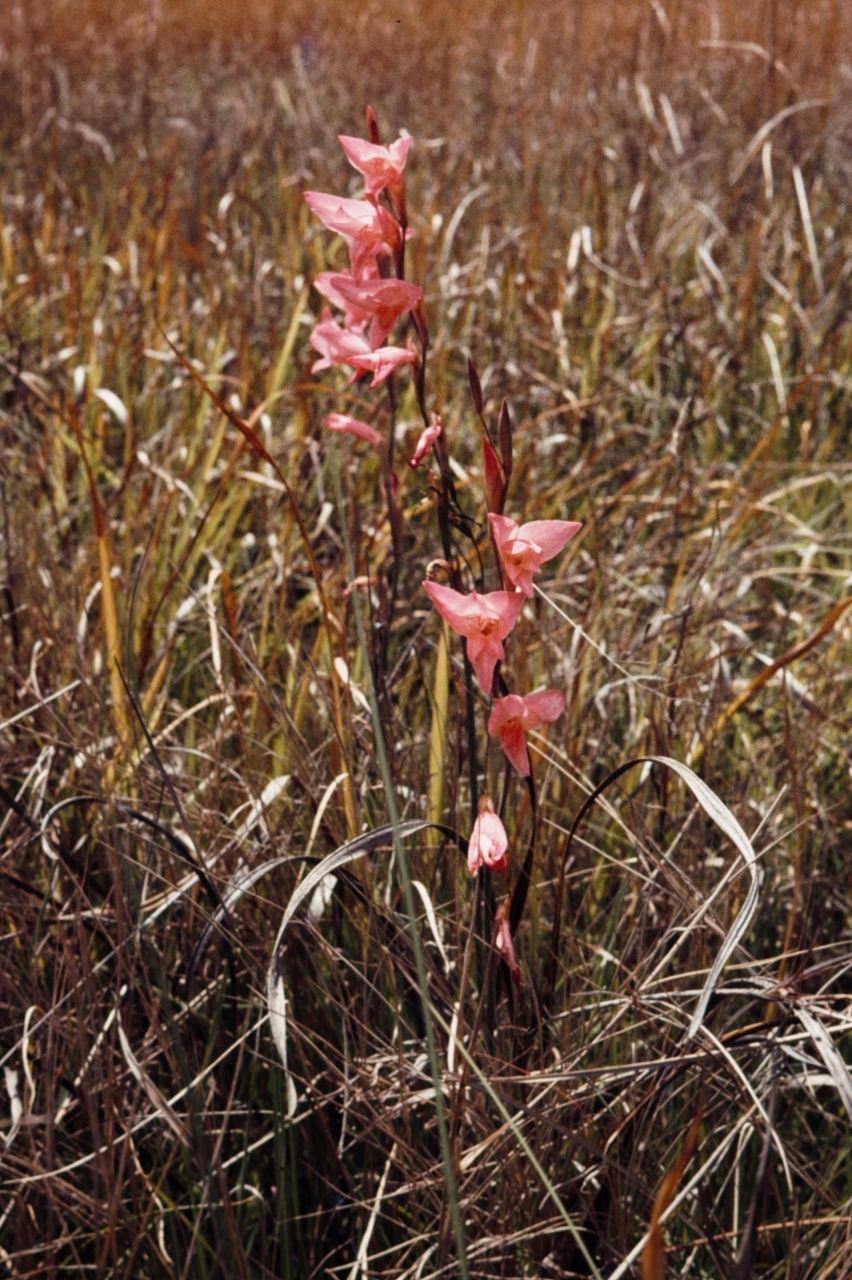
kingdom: Plantae
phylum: Tracheophyta
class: Liliopsida
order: Asparagales
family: Iridaceae
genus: Gladiolus
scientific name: Gladiolus melleri
